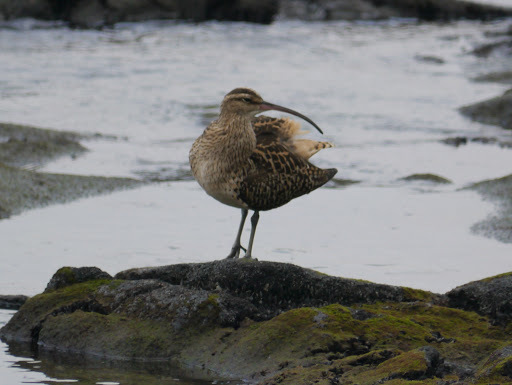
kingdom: Animalia
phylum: Chordata
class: Aves
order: Charadriiformes
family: Scolopacidae
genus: Numenius
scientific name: Numenius tahitiensis
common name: Bristle-thighed curlew
